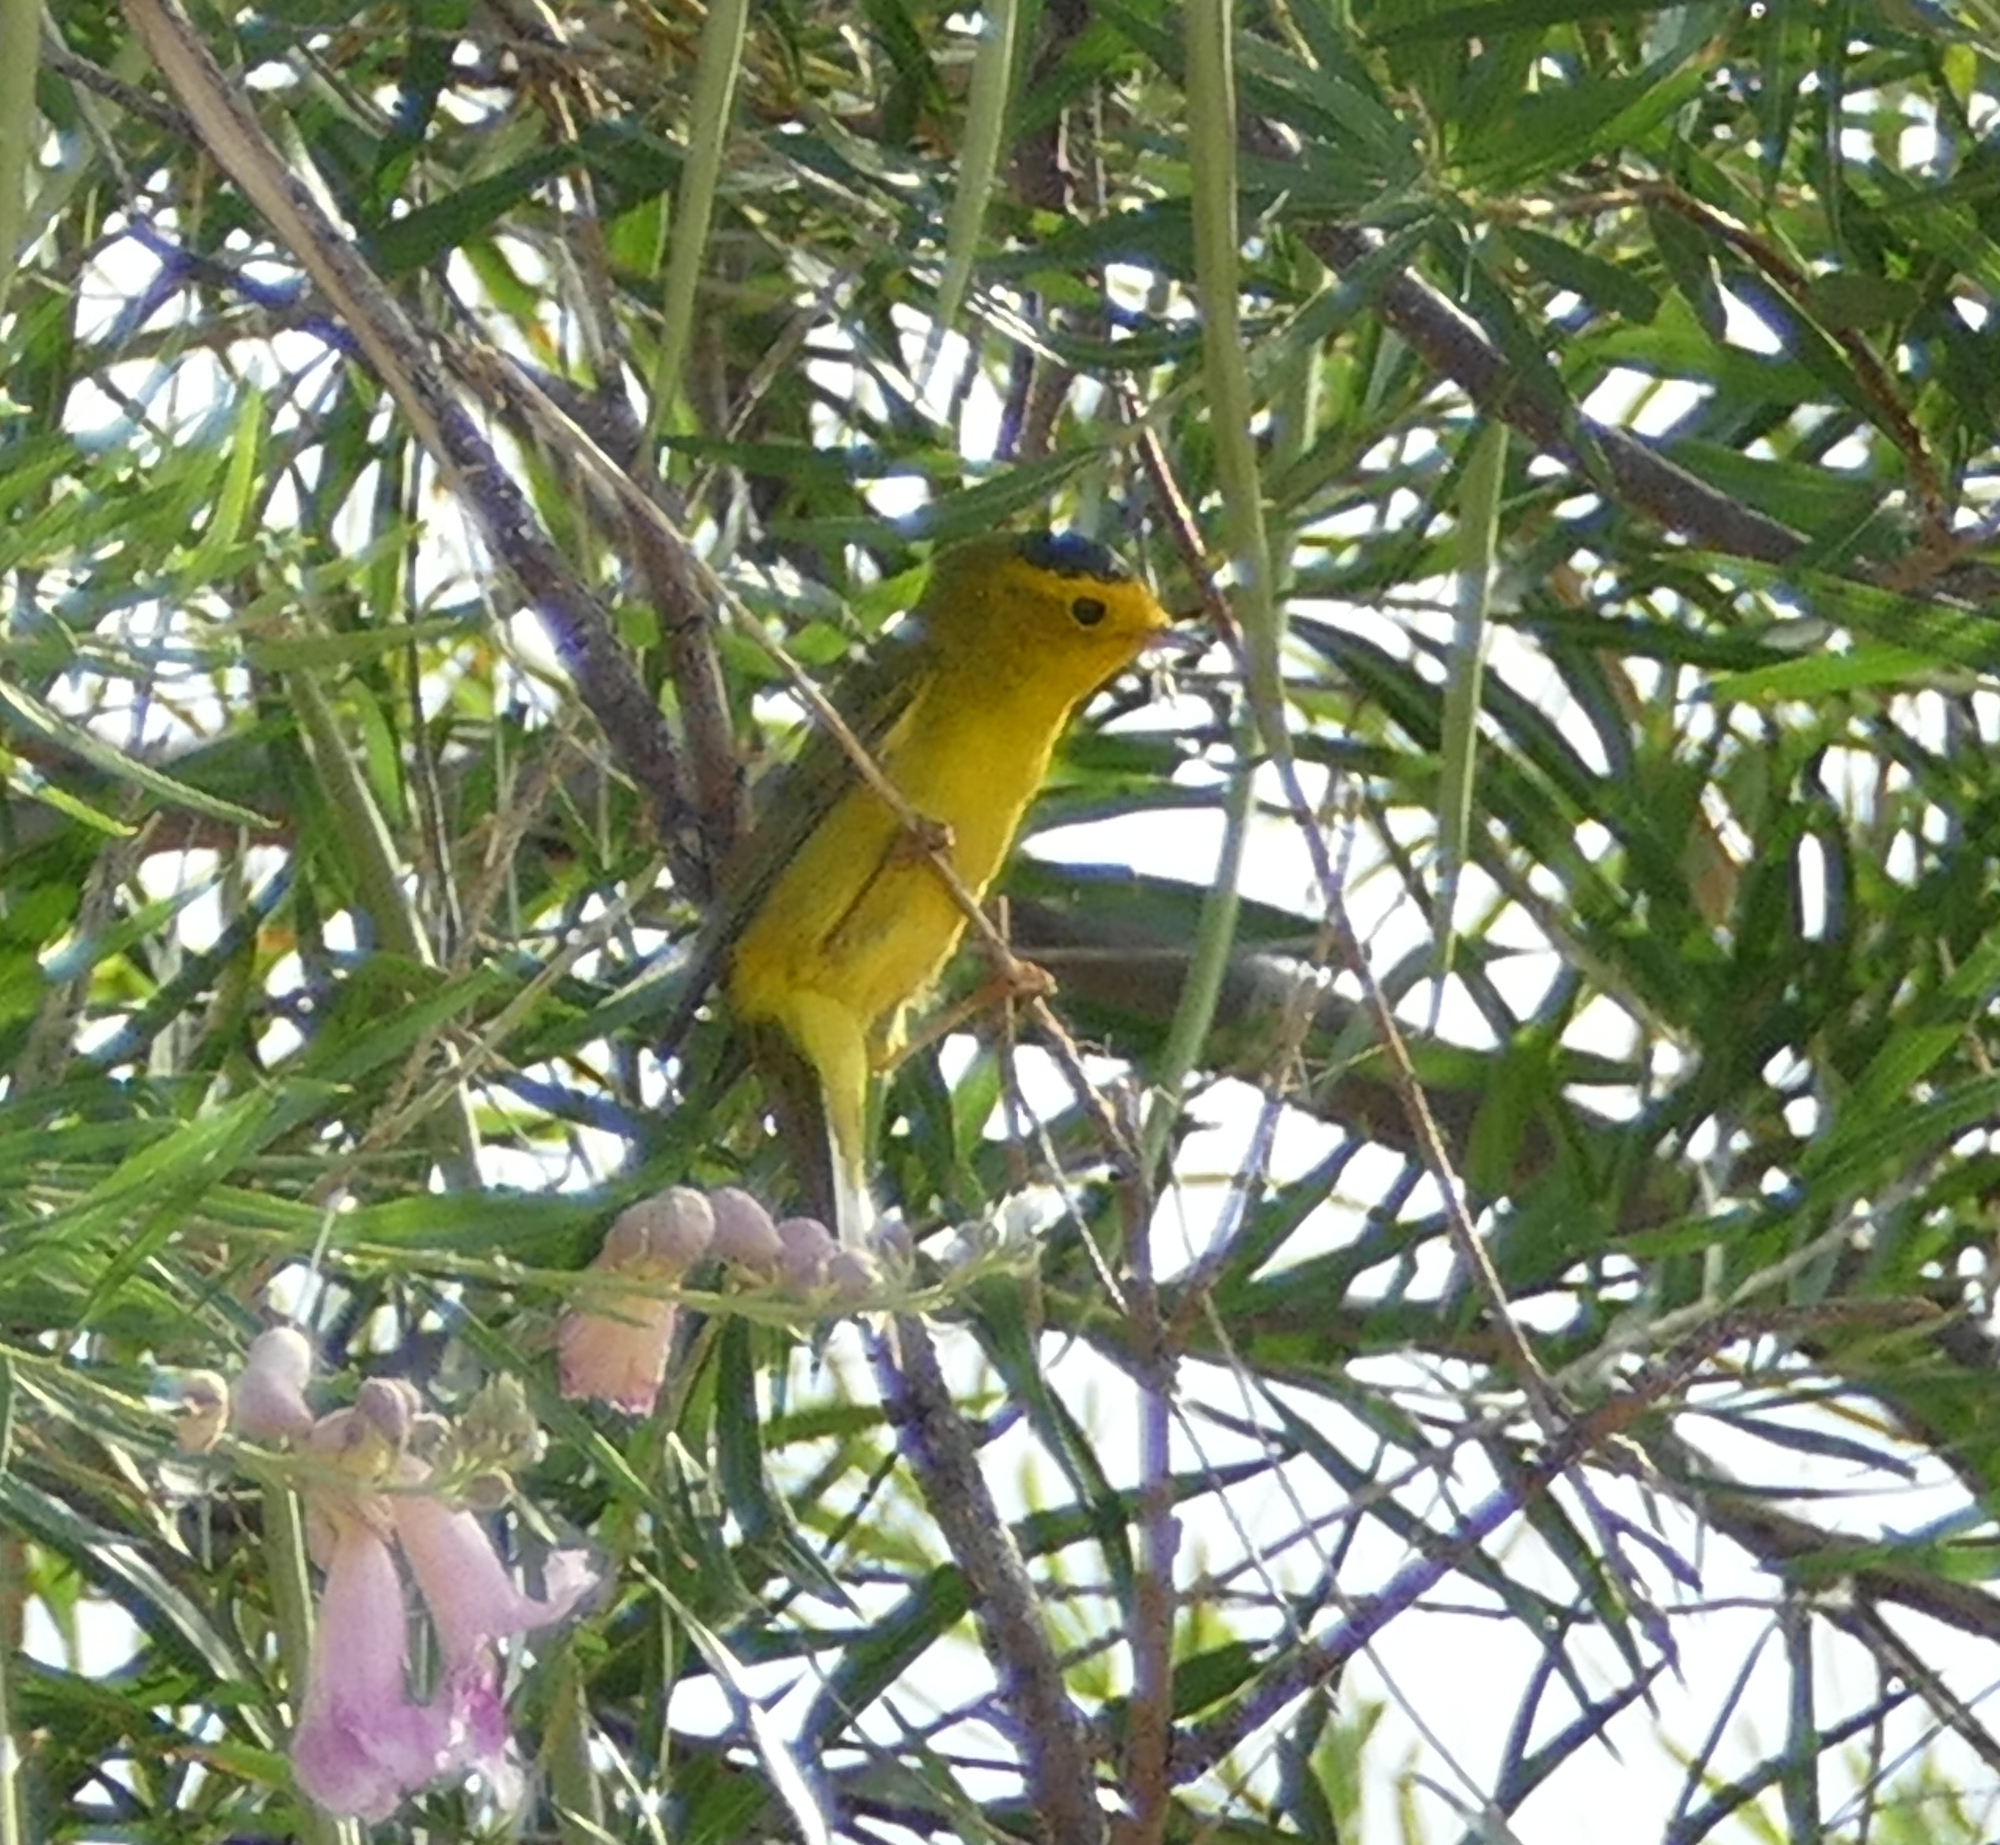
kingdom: Animalia
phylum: Chordata
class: Aves
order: Passeriformes
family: Parulidae
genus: Cardellina
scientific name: Cardellina pusilla
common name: Wilson's warbler
